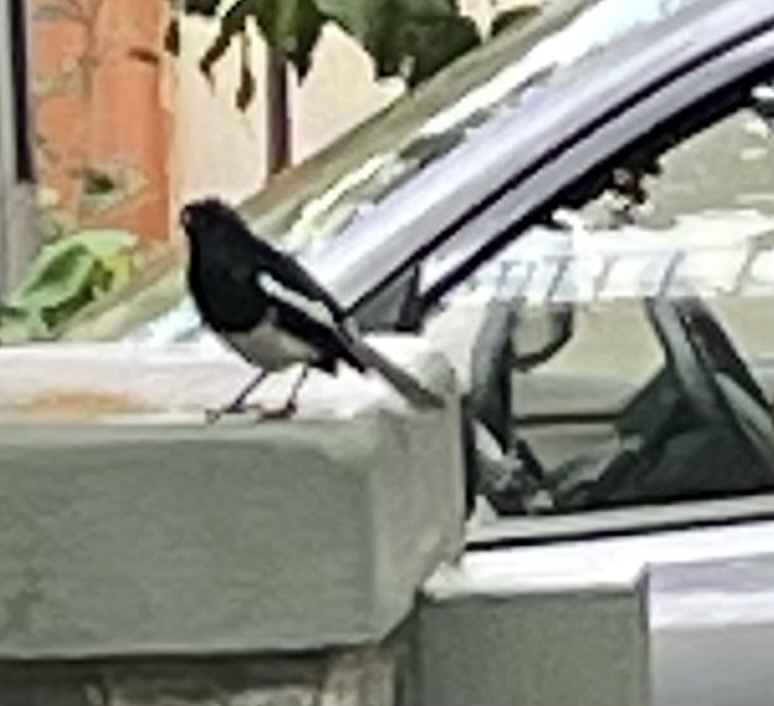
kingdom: Animalia
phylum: Chordata
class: Aves
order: Passeriformes
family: Muscicapidae
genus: Copsychus
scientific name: Copsychus saularis
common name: Oriental magpie-robin
